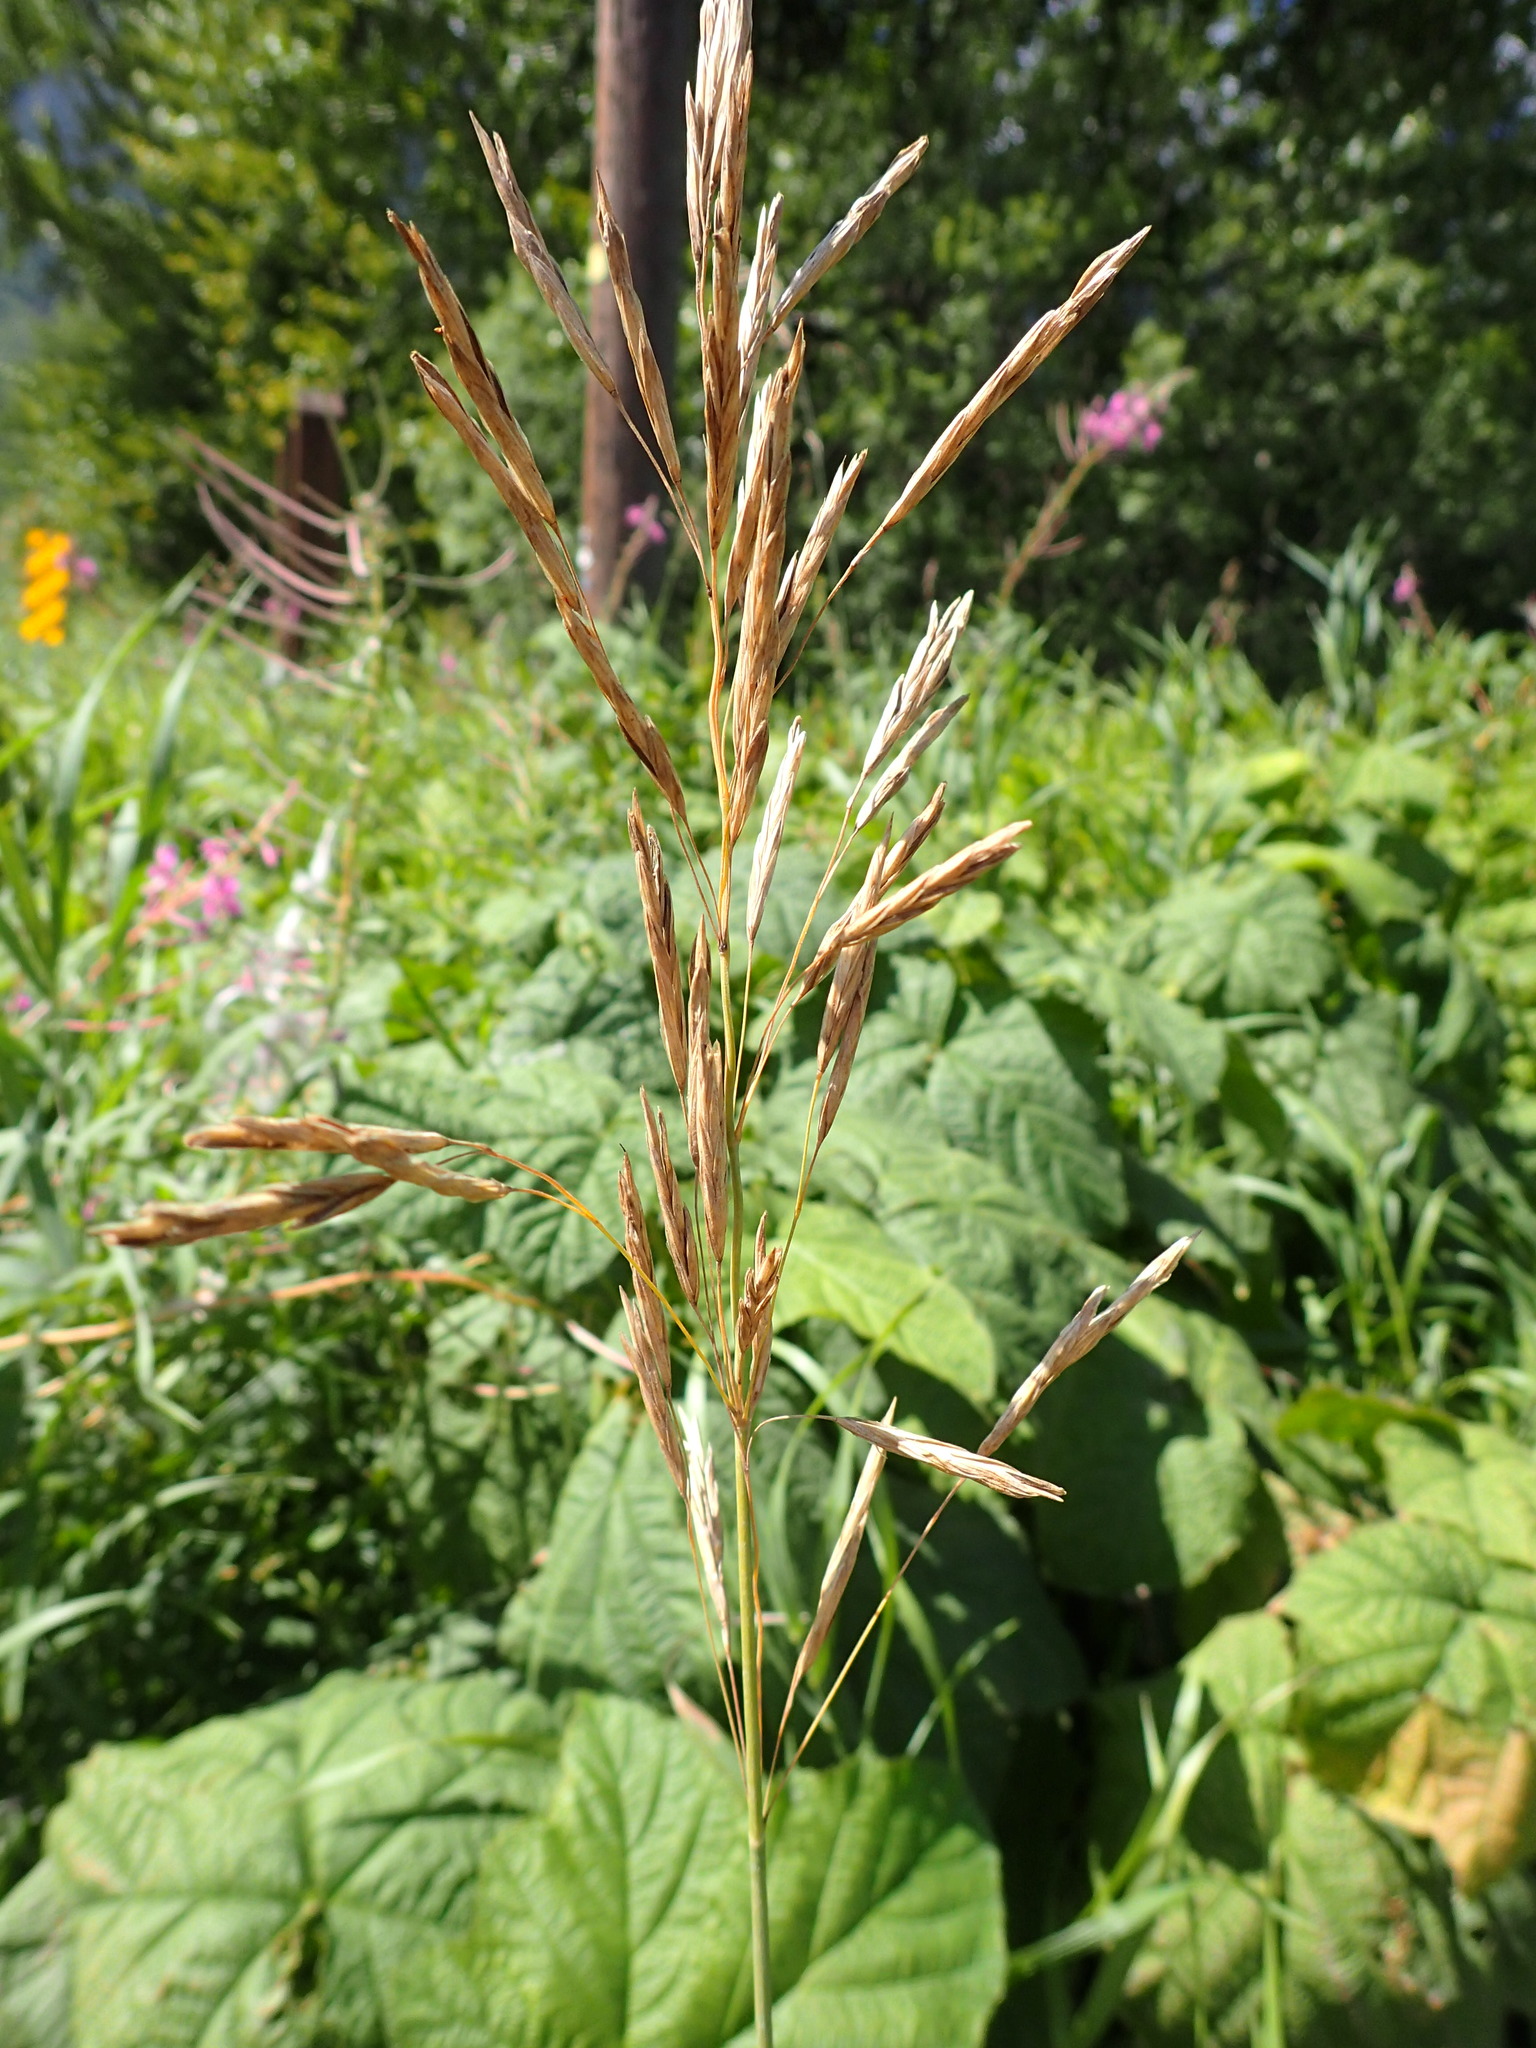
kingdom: Plantae
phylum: Tracheophyta
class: Liliopsida
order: Poales
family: Poaceae
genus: Bromus
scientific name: Bromus inermis
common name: Smooth brome
